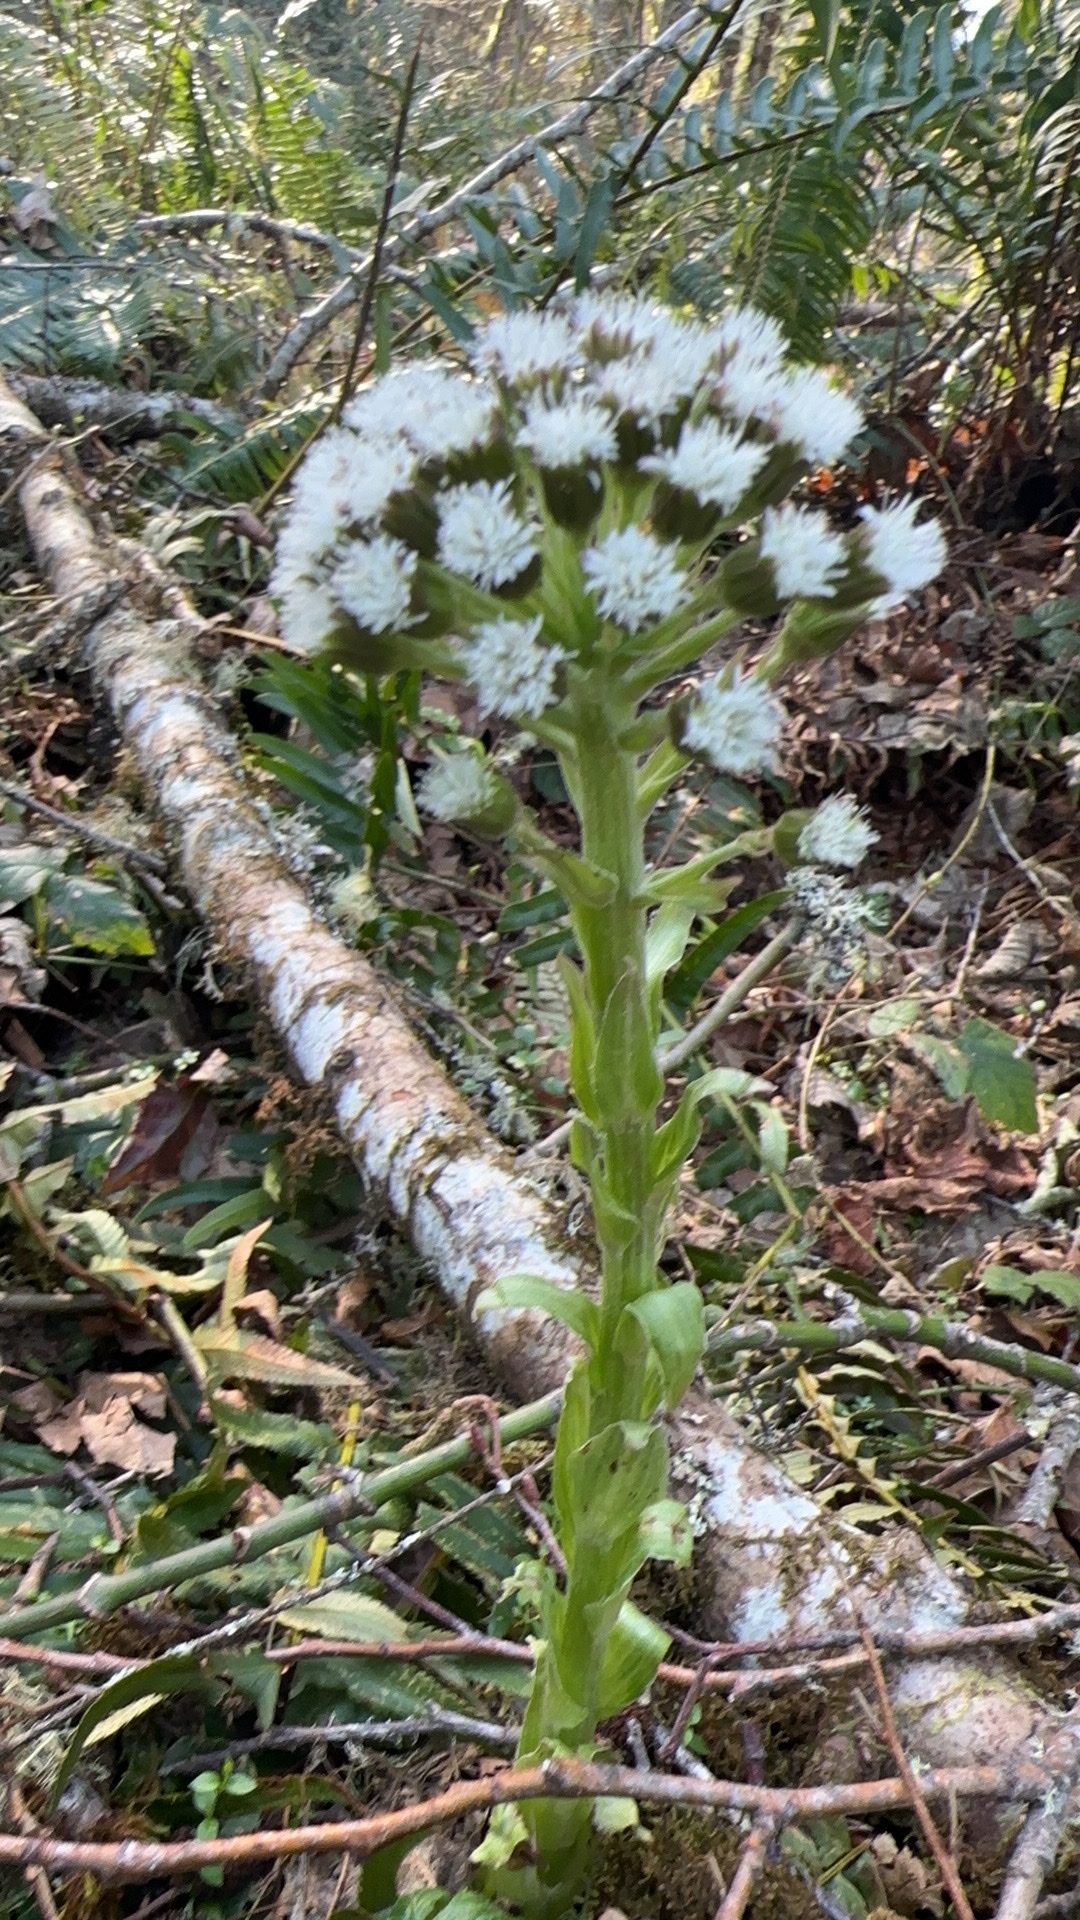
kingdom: Plantae
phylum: Tracheophyta
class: Magnoliopsida
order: Asterales
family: Asteraceae
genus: Petasites
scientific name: Petasites frigidus
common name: Arctic butterbur
